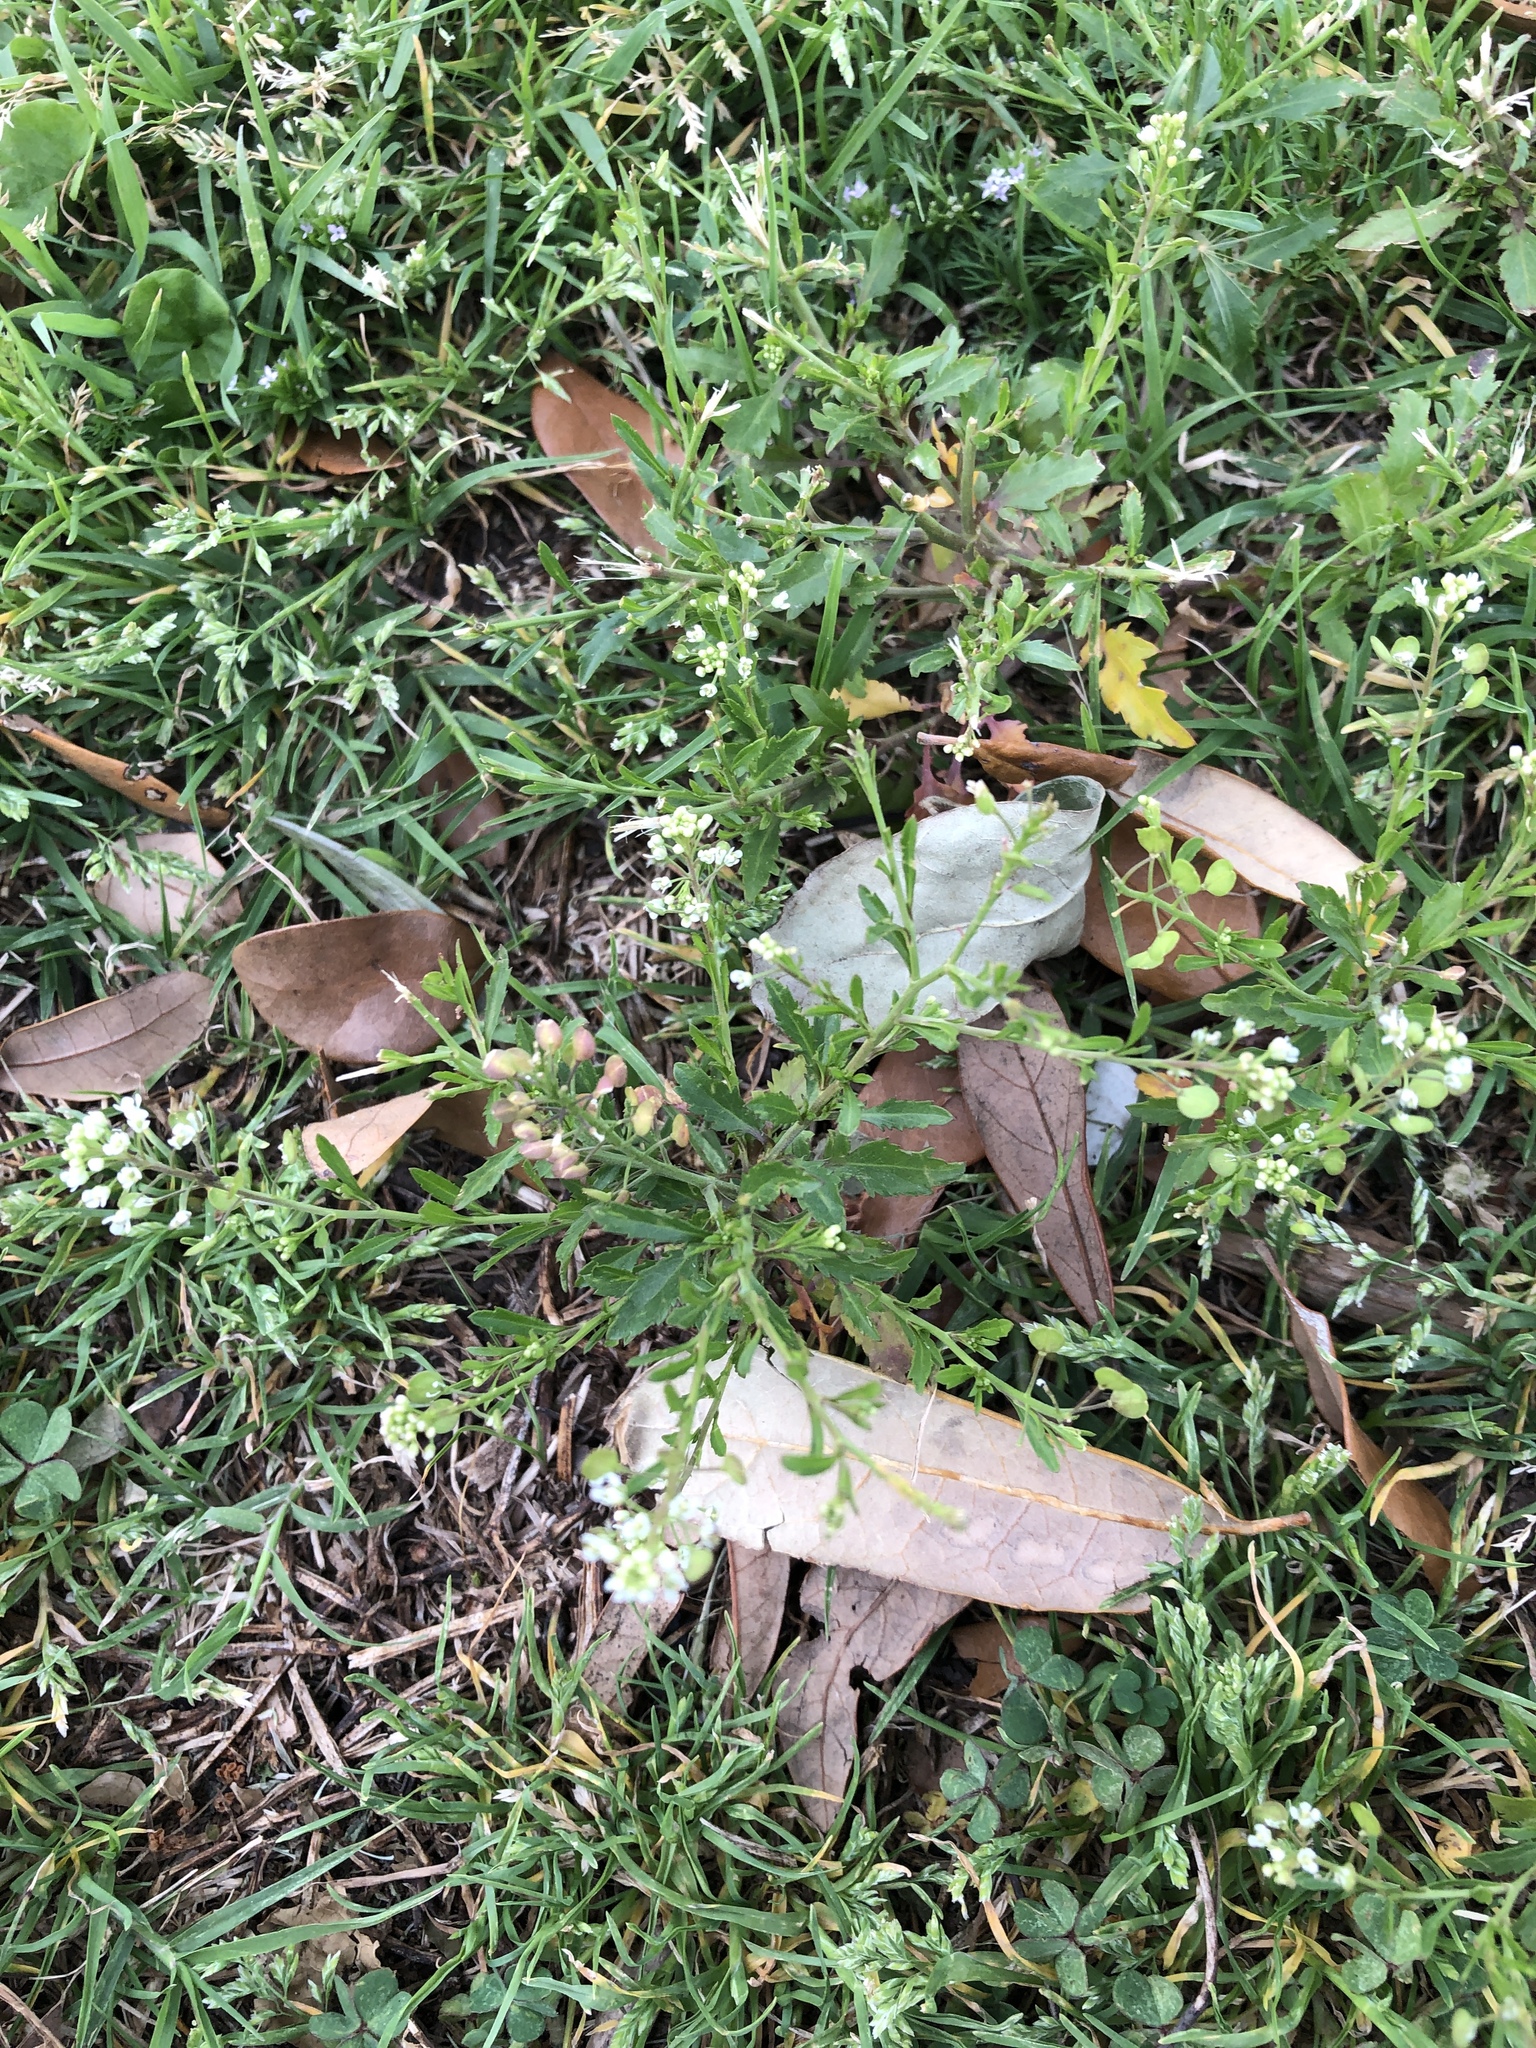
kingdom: Plantae
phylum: Tracheophyta
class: Magnoliopsida
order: Brassicales
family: Brassicaceae
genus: Lepidium
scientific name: Lepidium virginicum
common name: Least pepperwort
